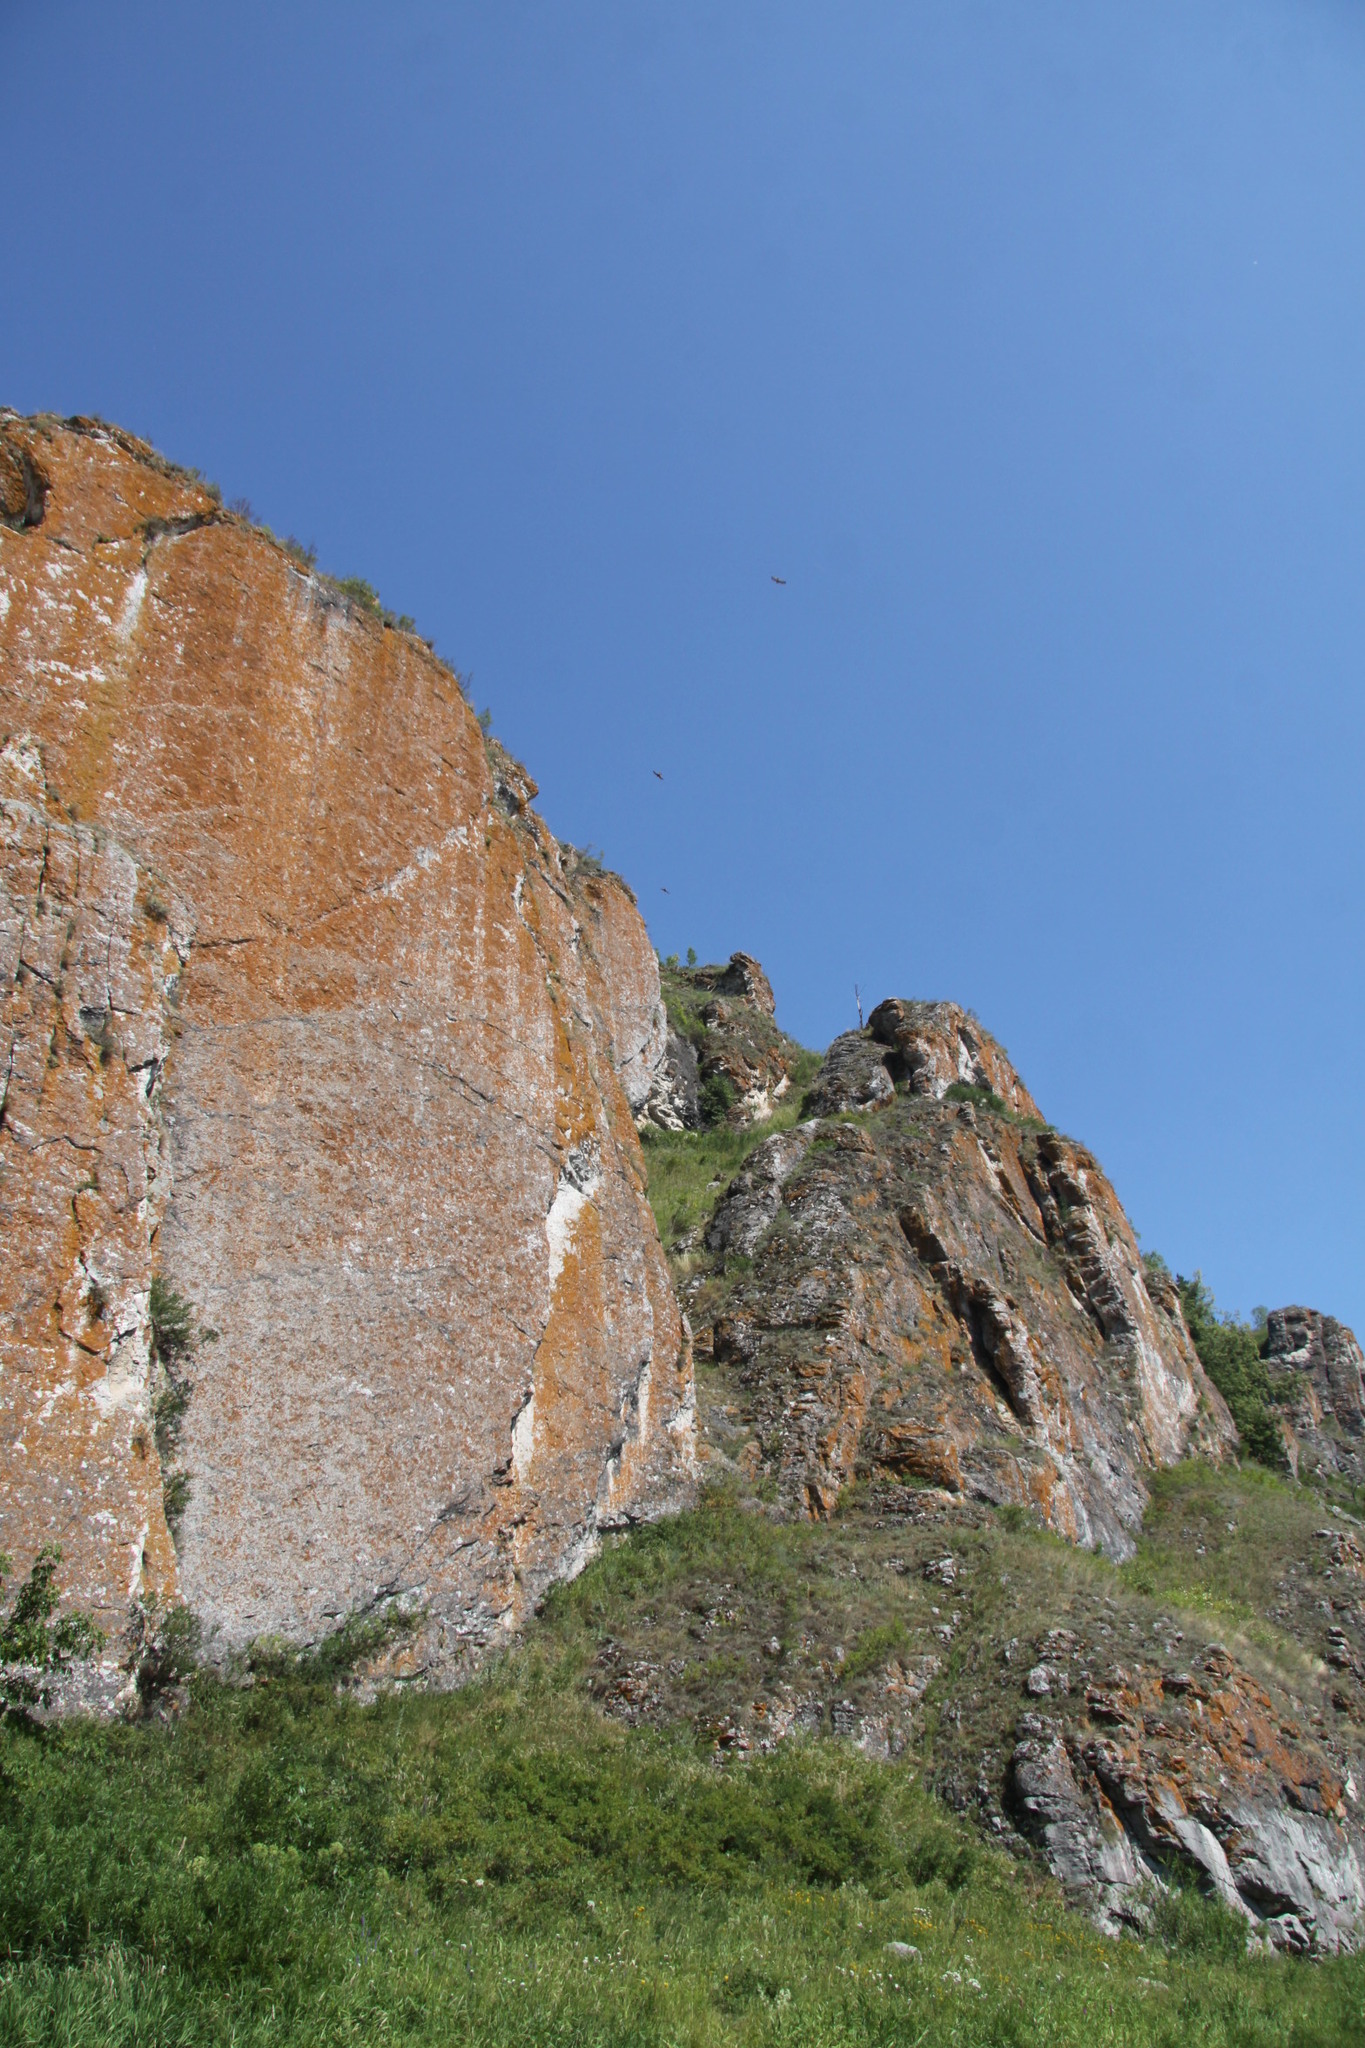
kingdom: Animalia
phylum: Chordata
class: Aves
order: Falconiformes
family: Falconidae
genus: Falco
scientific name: Falco tinnunculus
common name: Common kestrel
